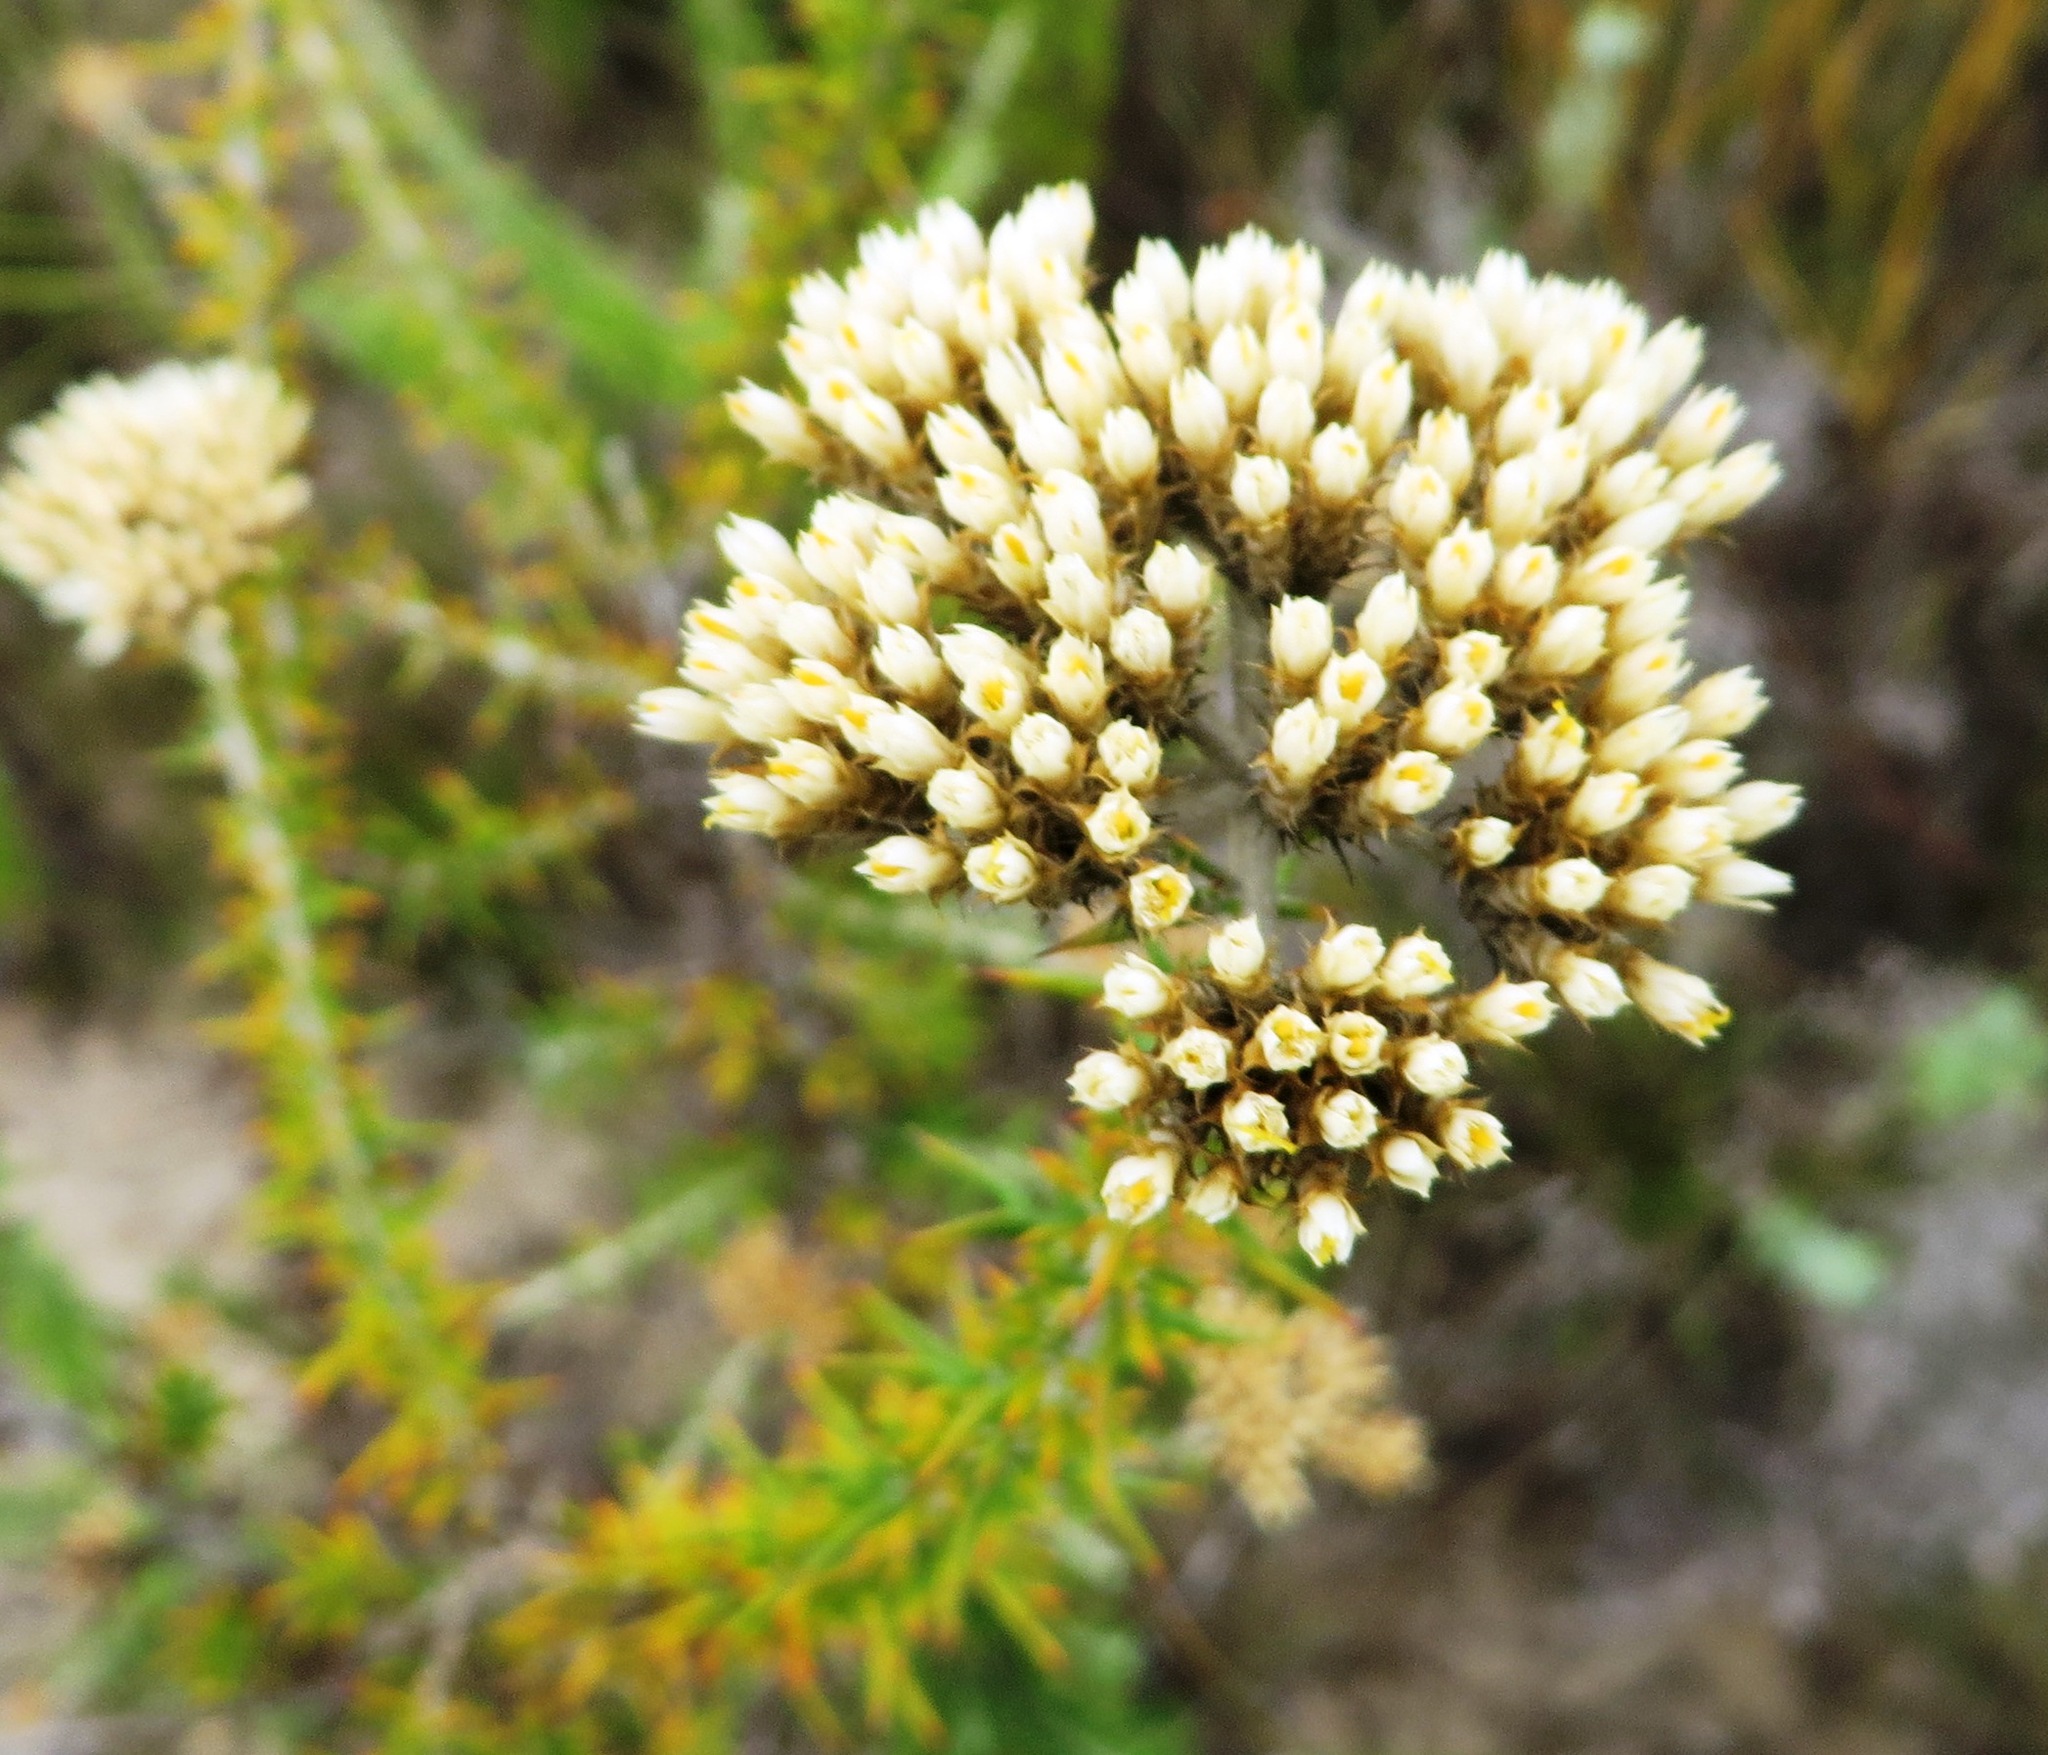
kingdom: Plantae
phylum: Tracheophyta
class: Magnoliopsida
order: Asterales
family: Asteraceae
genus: Metalasia
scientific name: Metalasia dregeana
